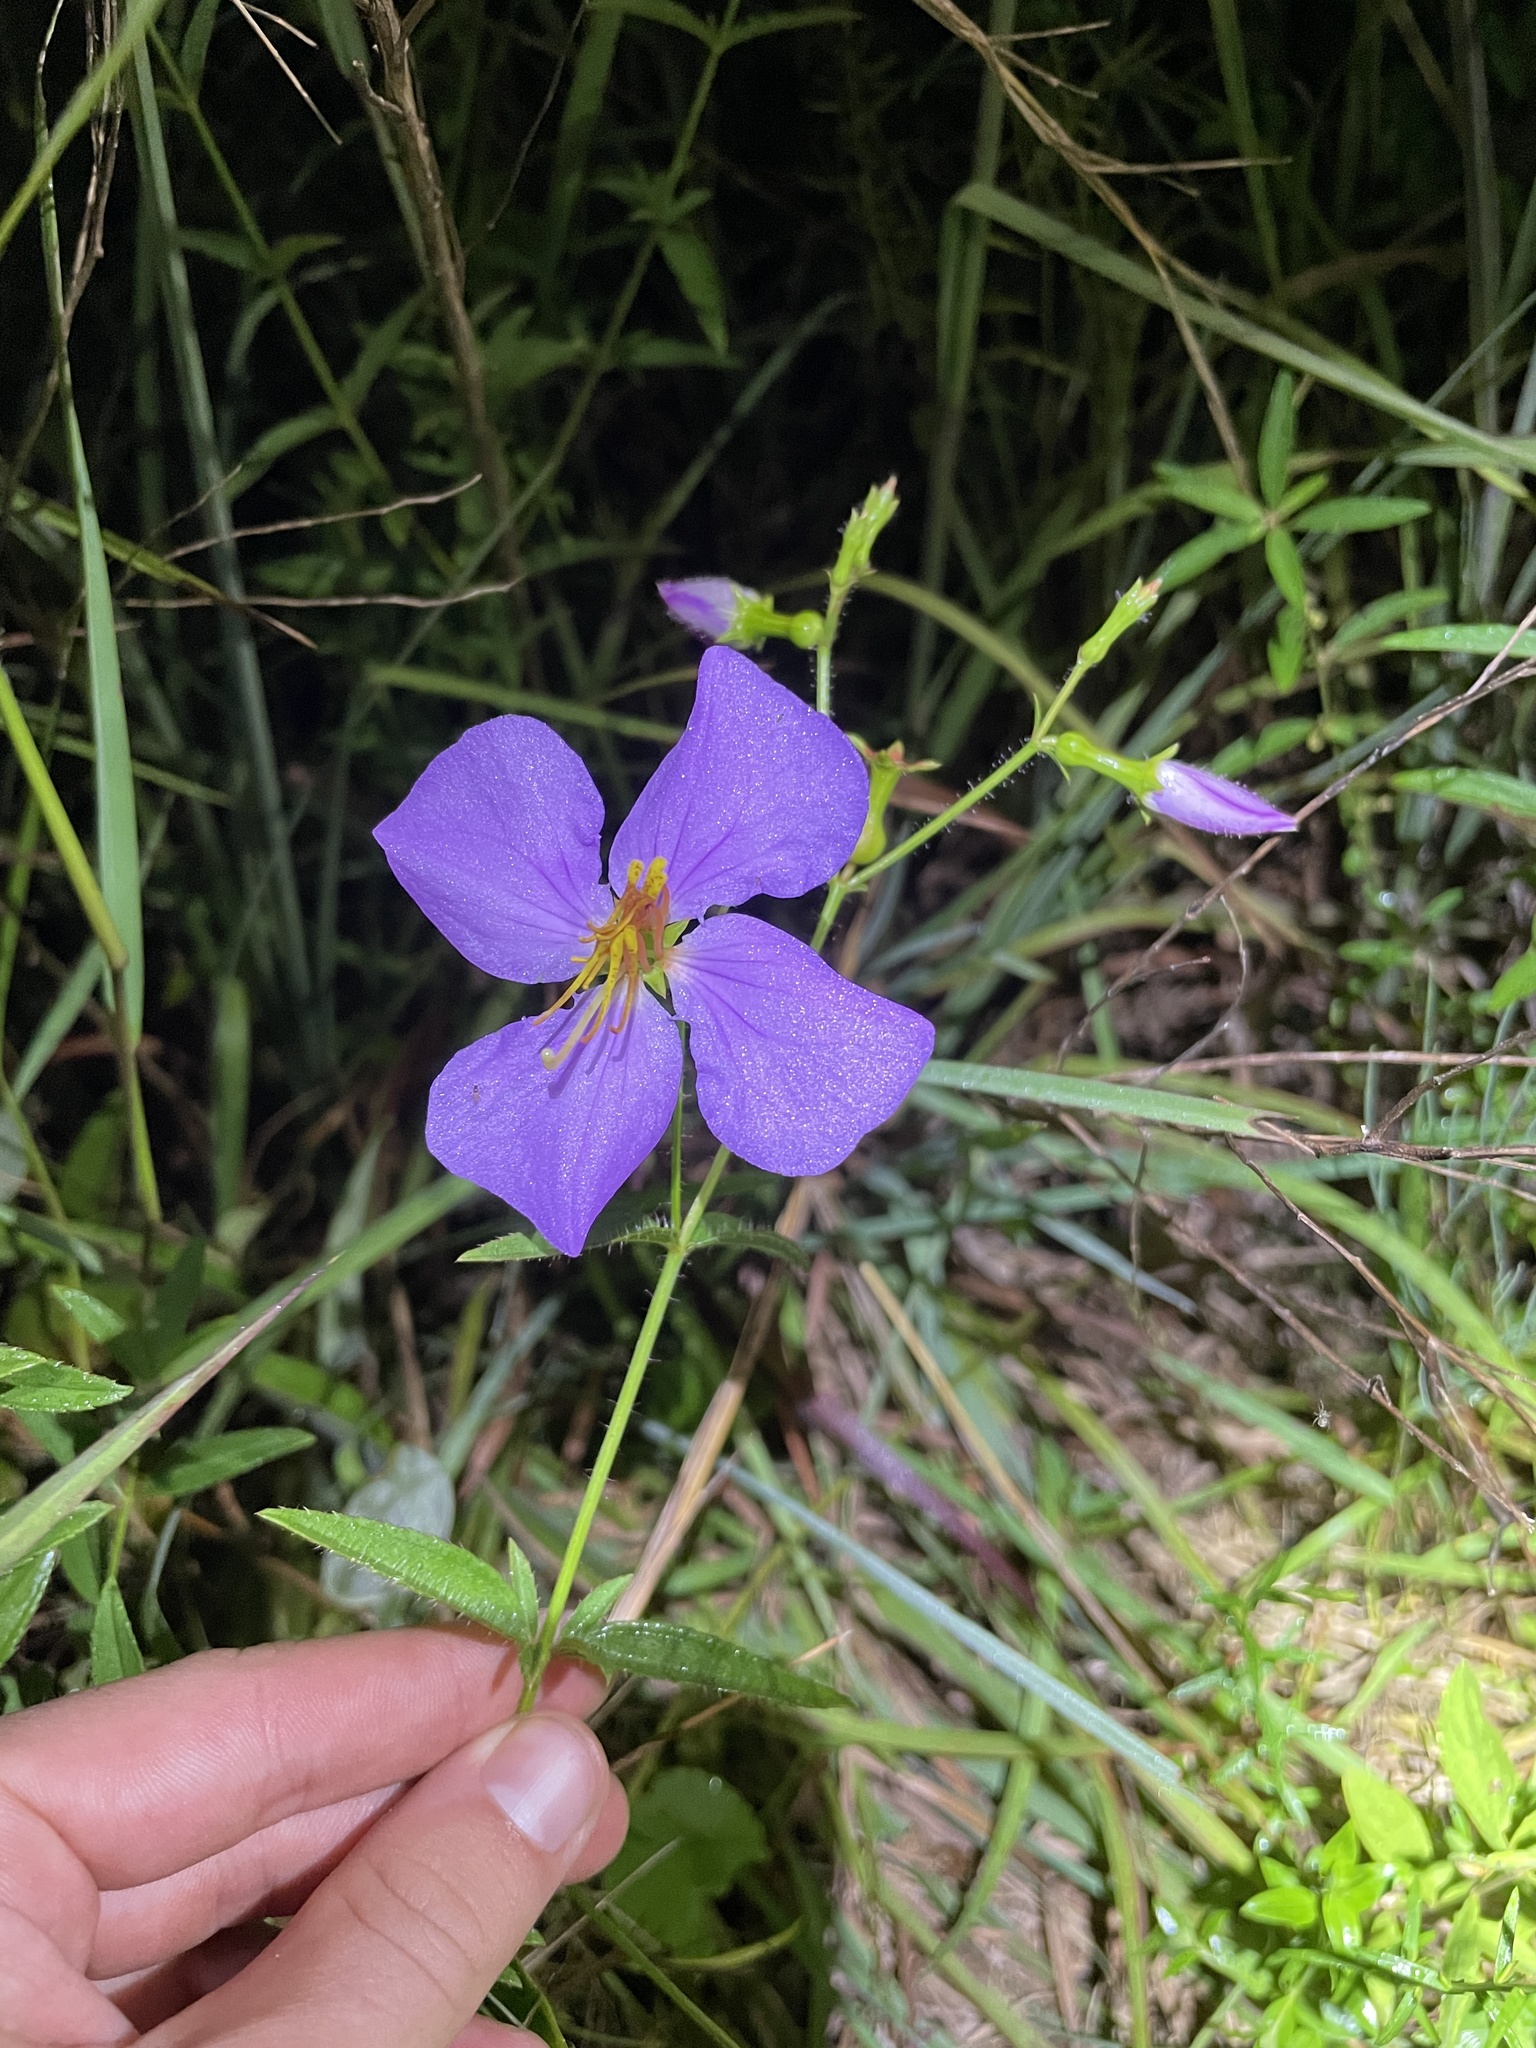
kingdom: Plantae
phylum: Tracheophyta
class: Magnoliopsida
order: Myrtales
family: Melastomataceae
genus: Rhexia
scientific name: Rhexia nashii
